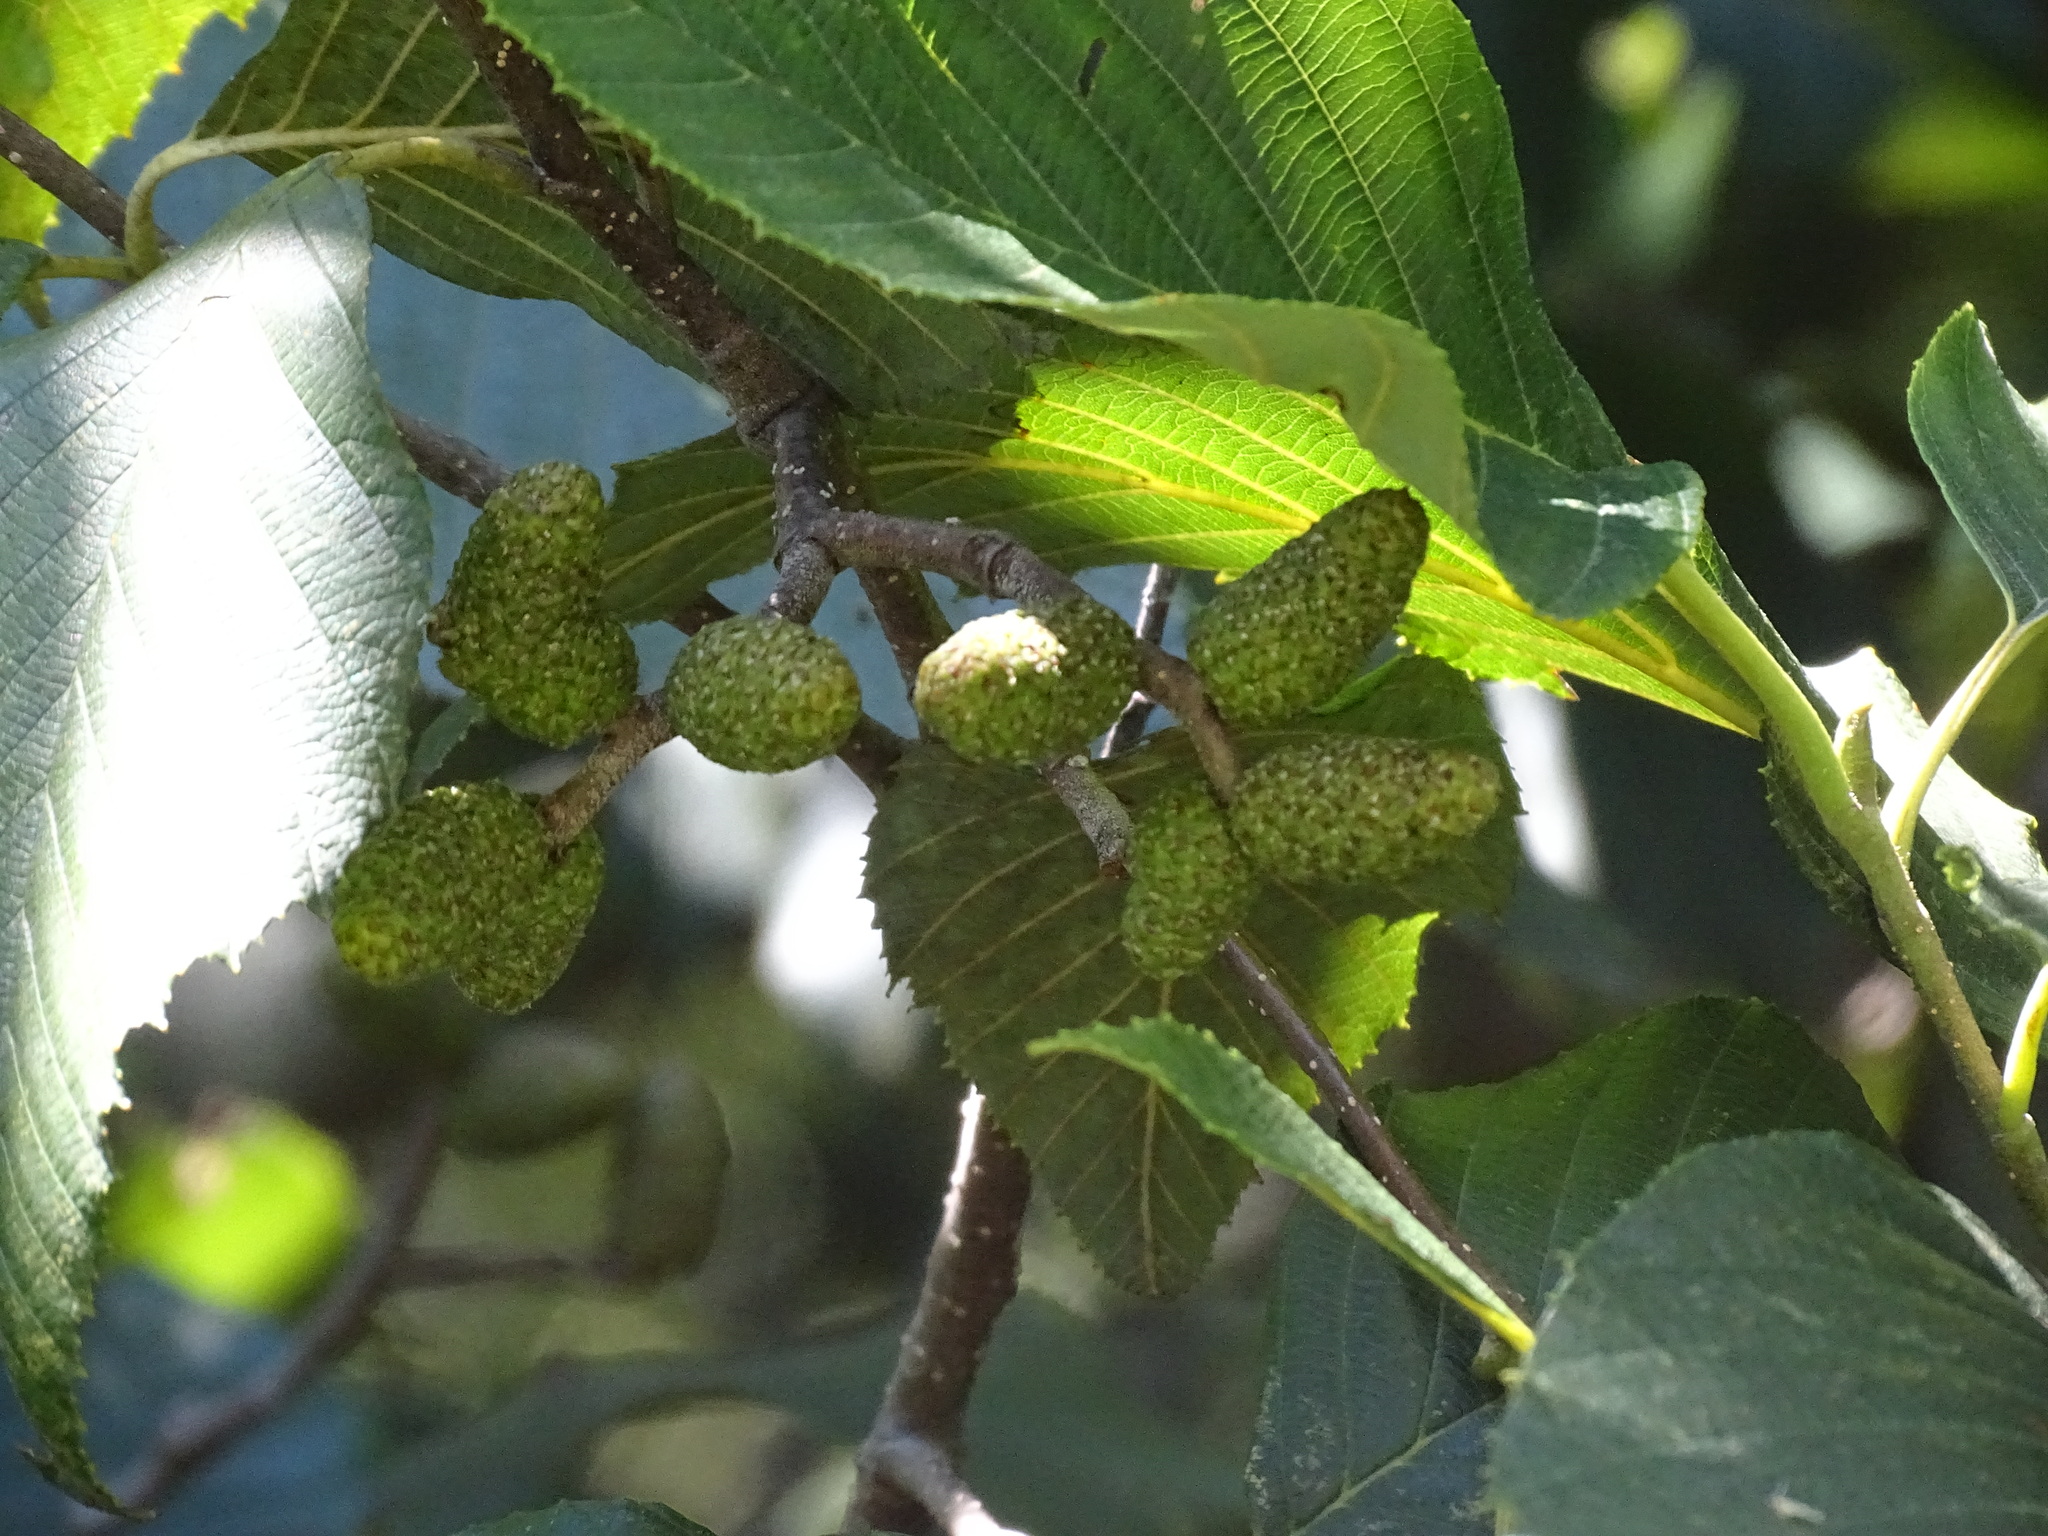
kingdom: Plantae
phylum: Tracheophyta
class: Magnoliopsida
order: Fagales
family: Betulaceae
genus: Alnus
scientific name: Alnus jorullensis
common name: Evergreen alder
